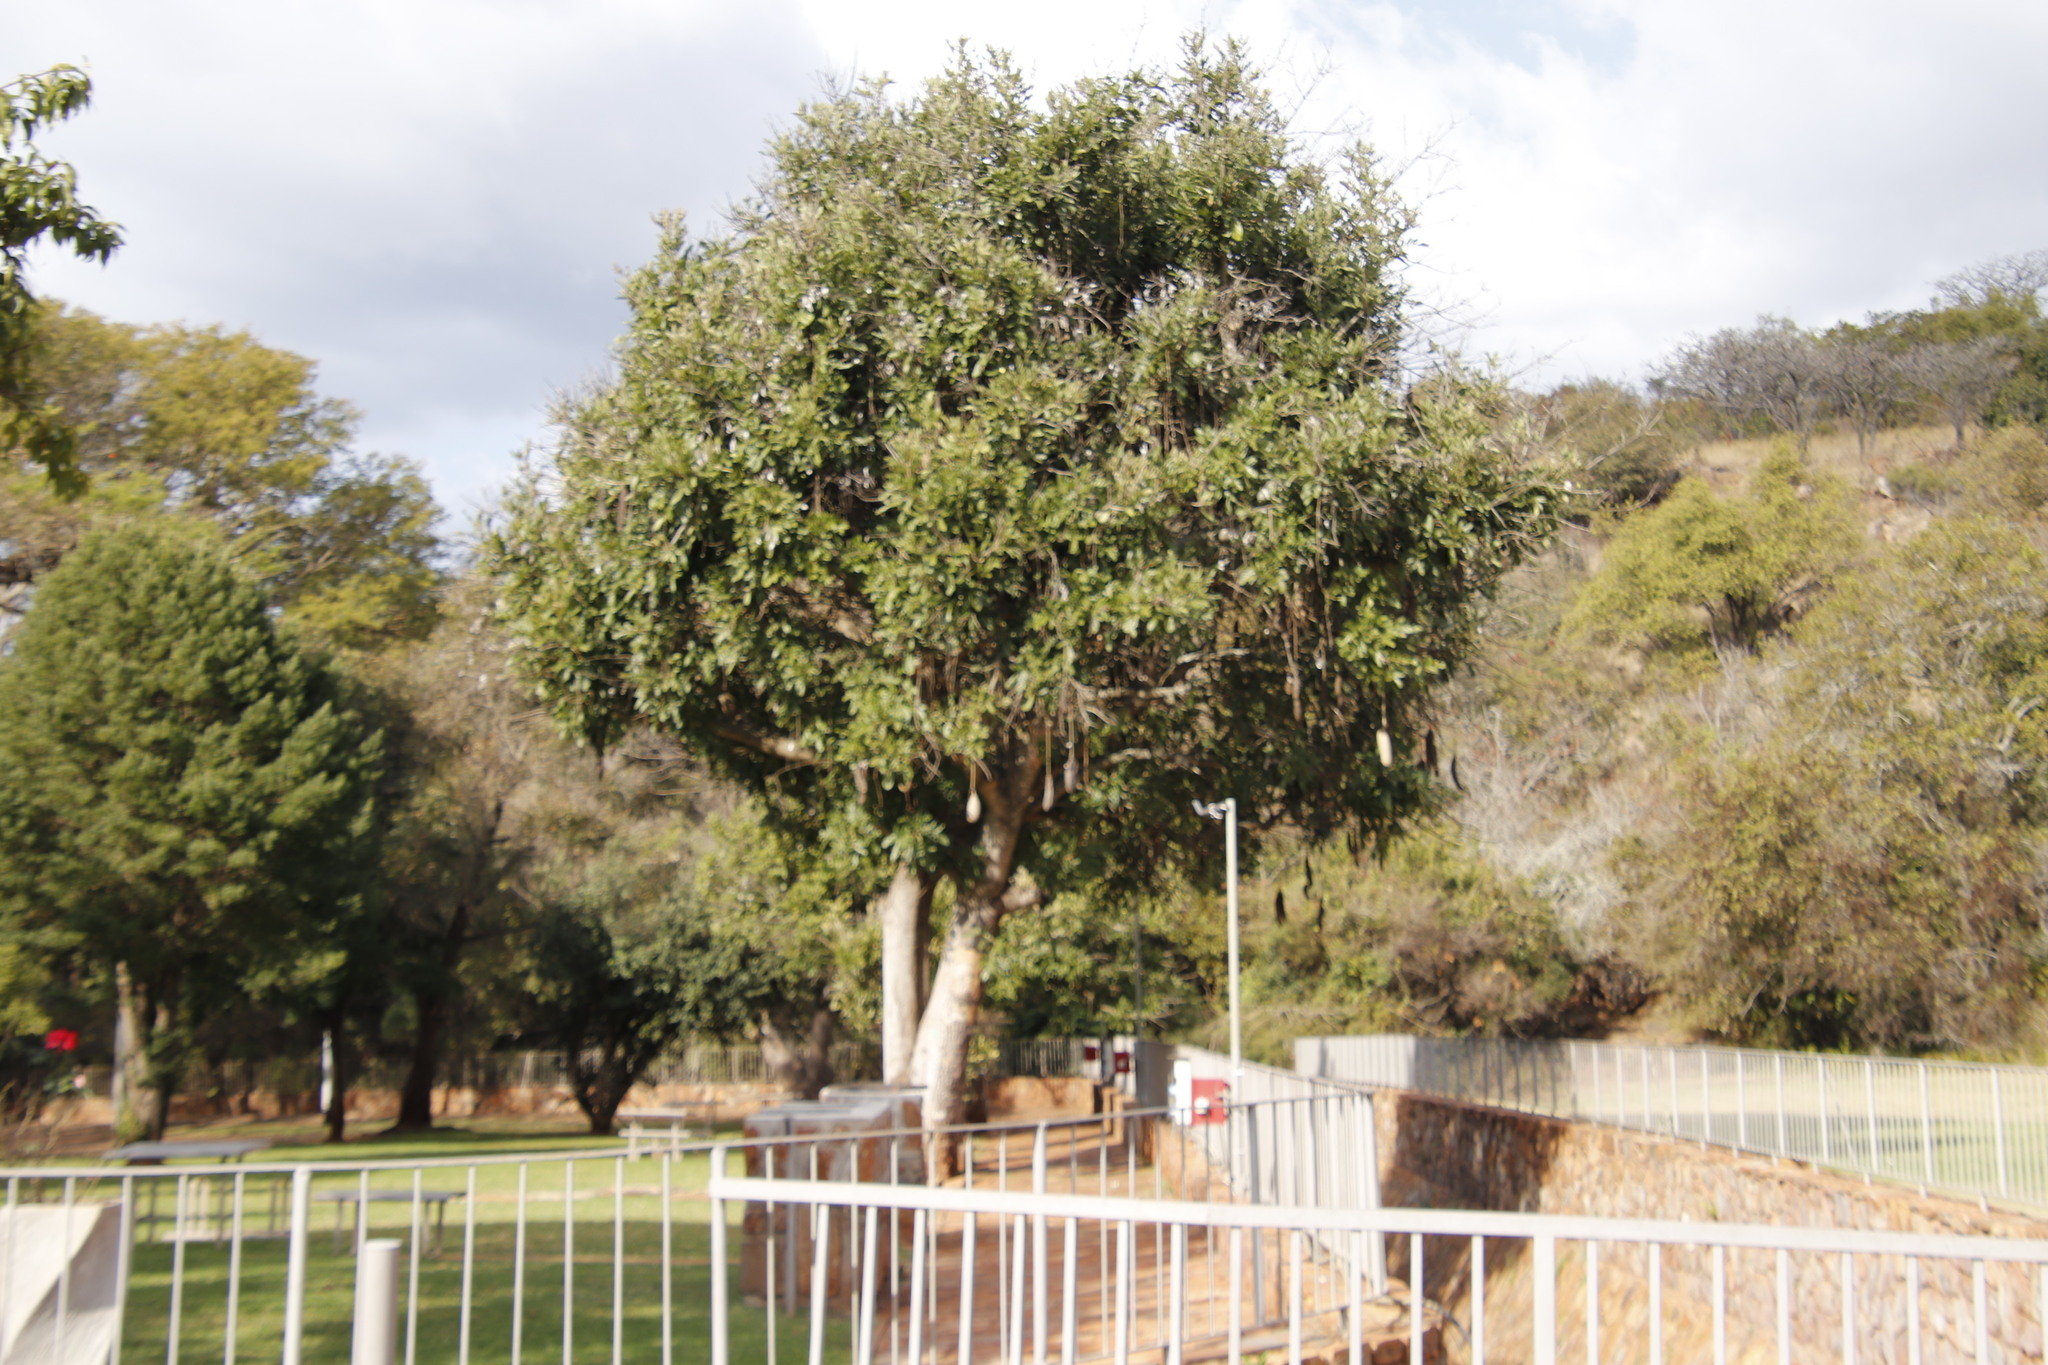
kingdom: Plantae
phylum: Tracheophyta
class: Magnoliopsida
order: Lamiales
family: Bignoniaceae
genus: Kigelia
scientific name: Kigelia africana
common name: Sausage tree
